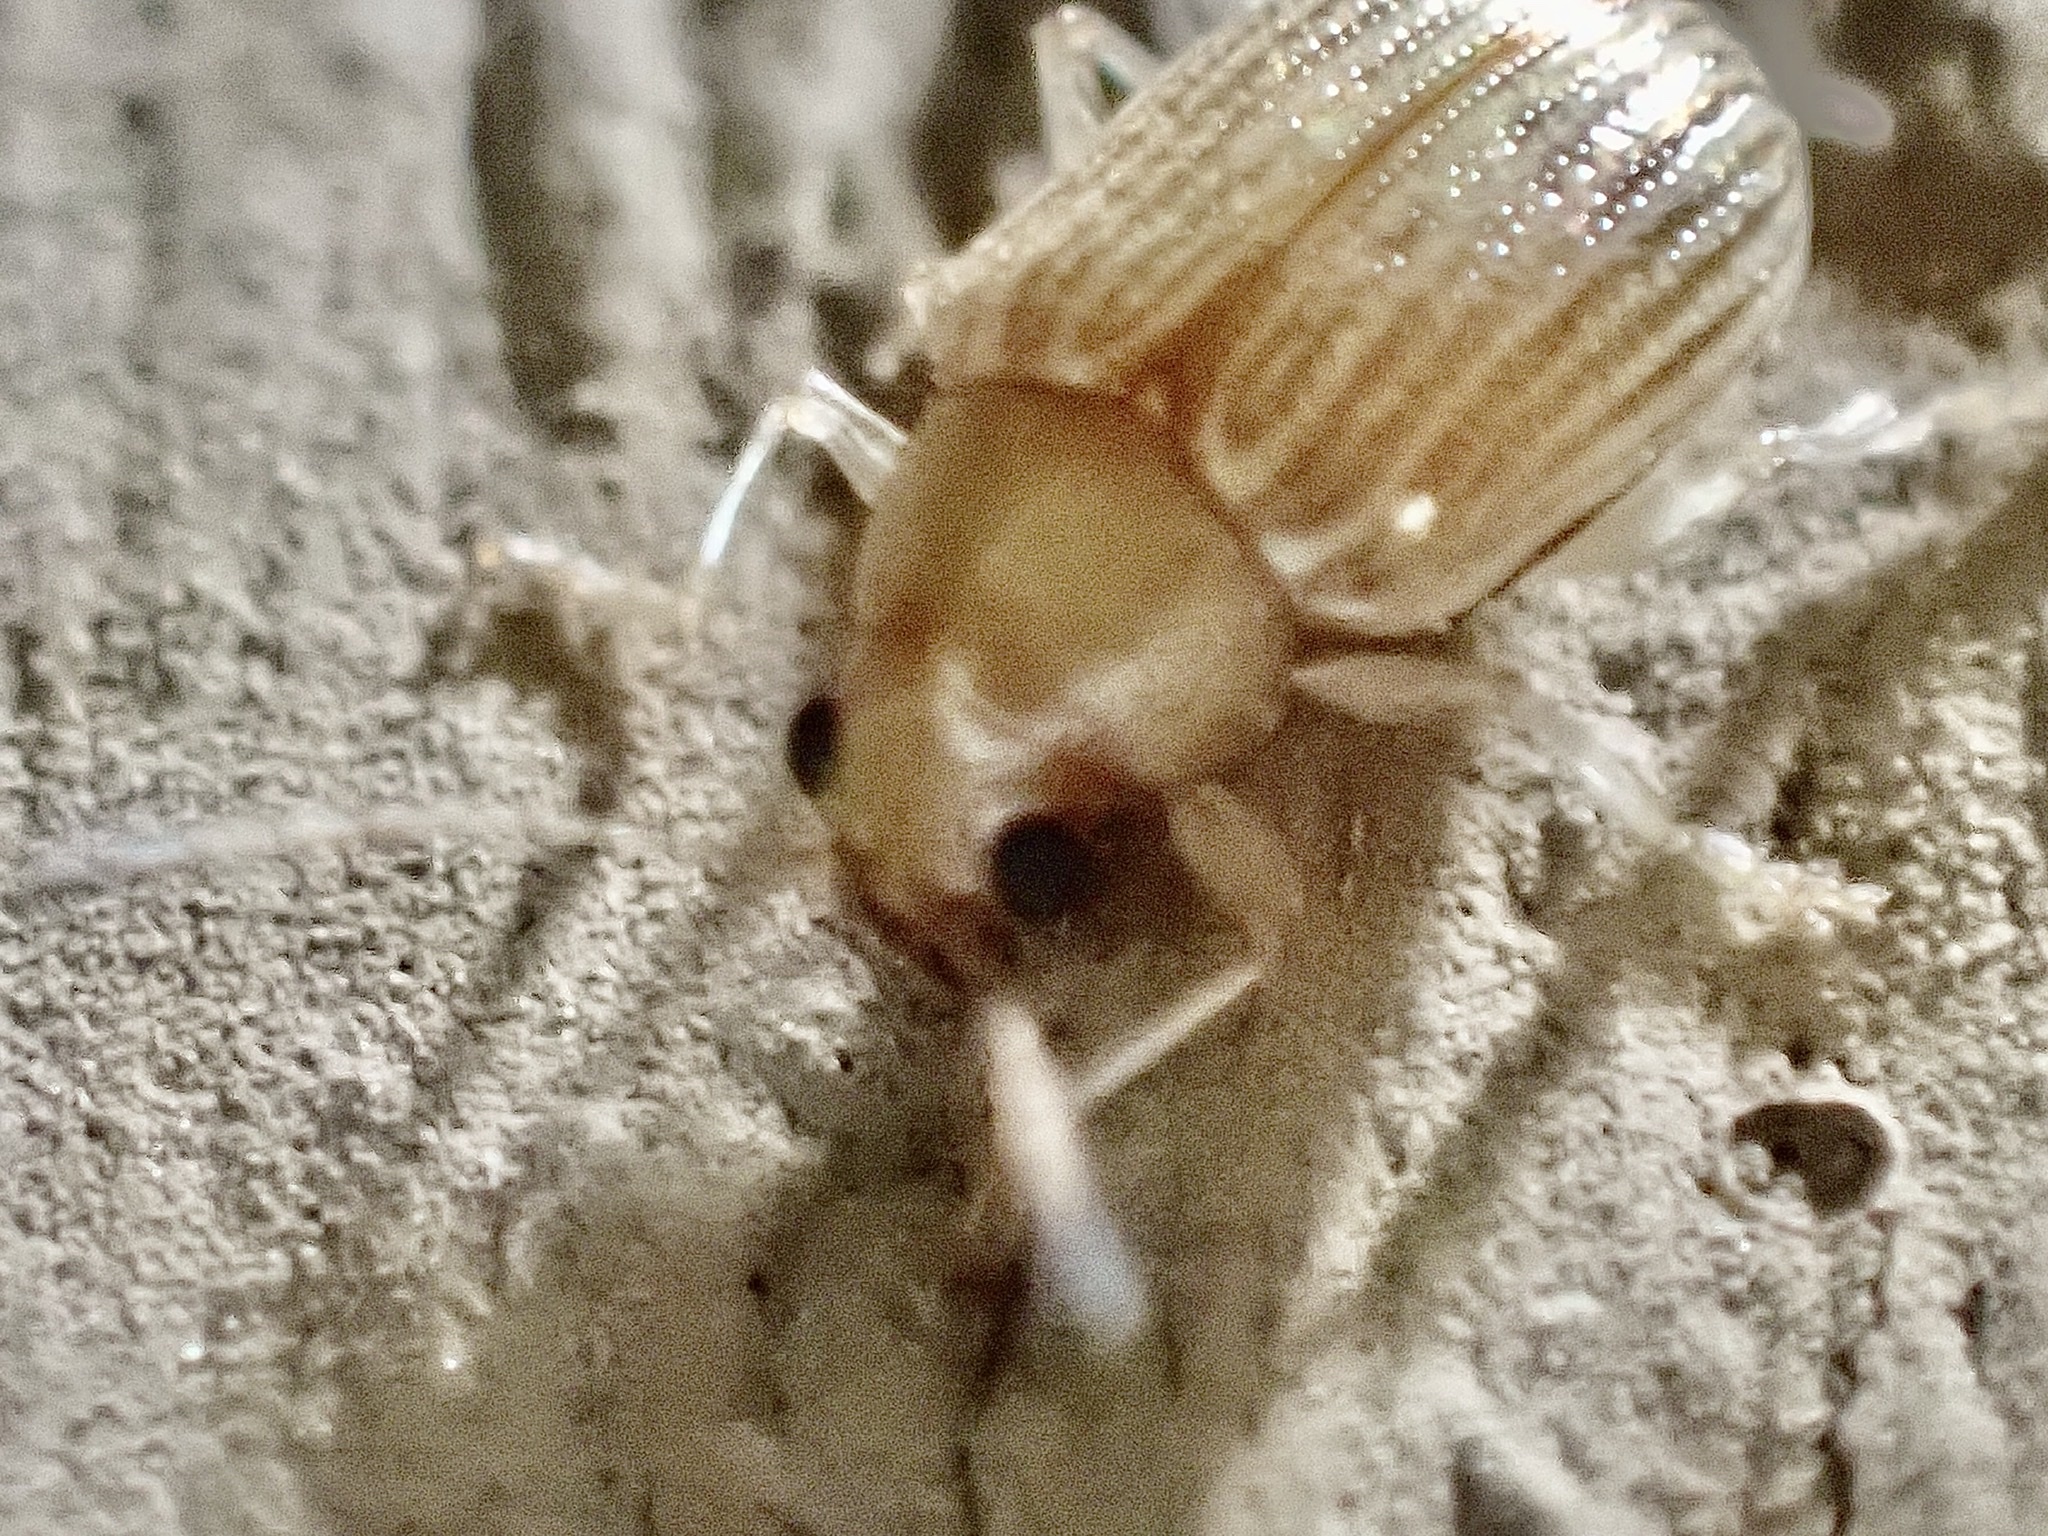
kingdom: Animalia
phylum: Arthropoda
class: Insecta
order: Coleoptera
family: Chrysomelidae
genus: Colaspis
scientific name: Colaspis brunnea
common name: Grape colaspis
